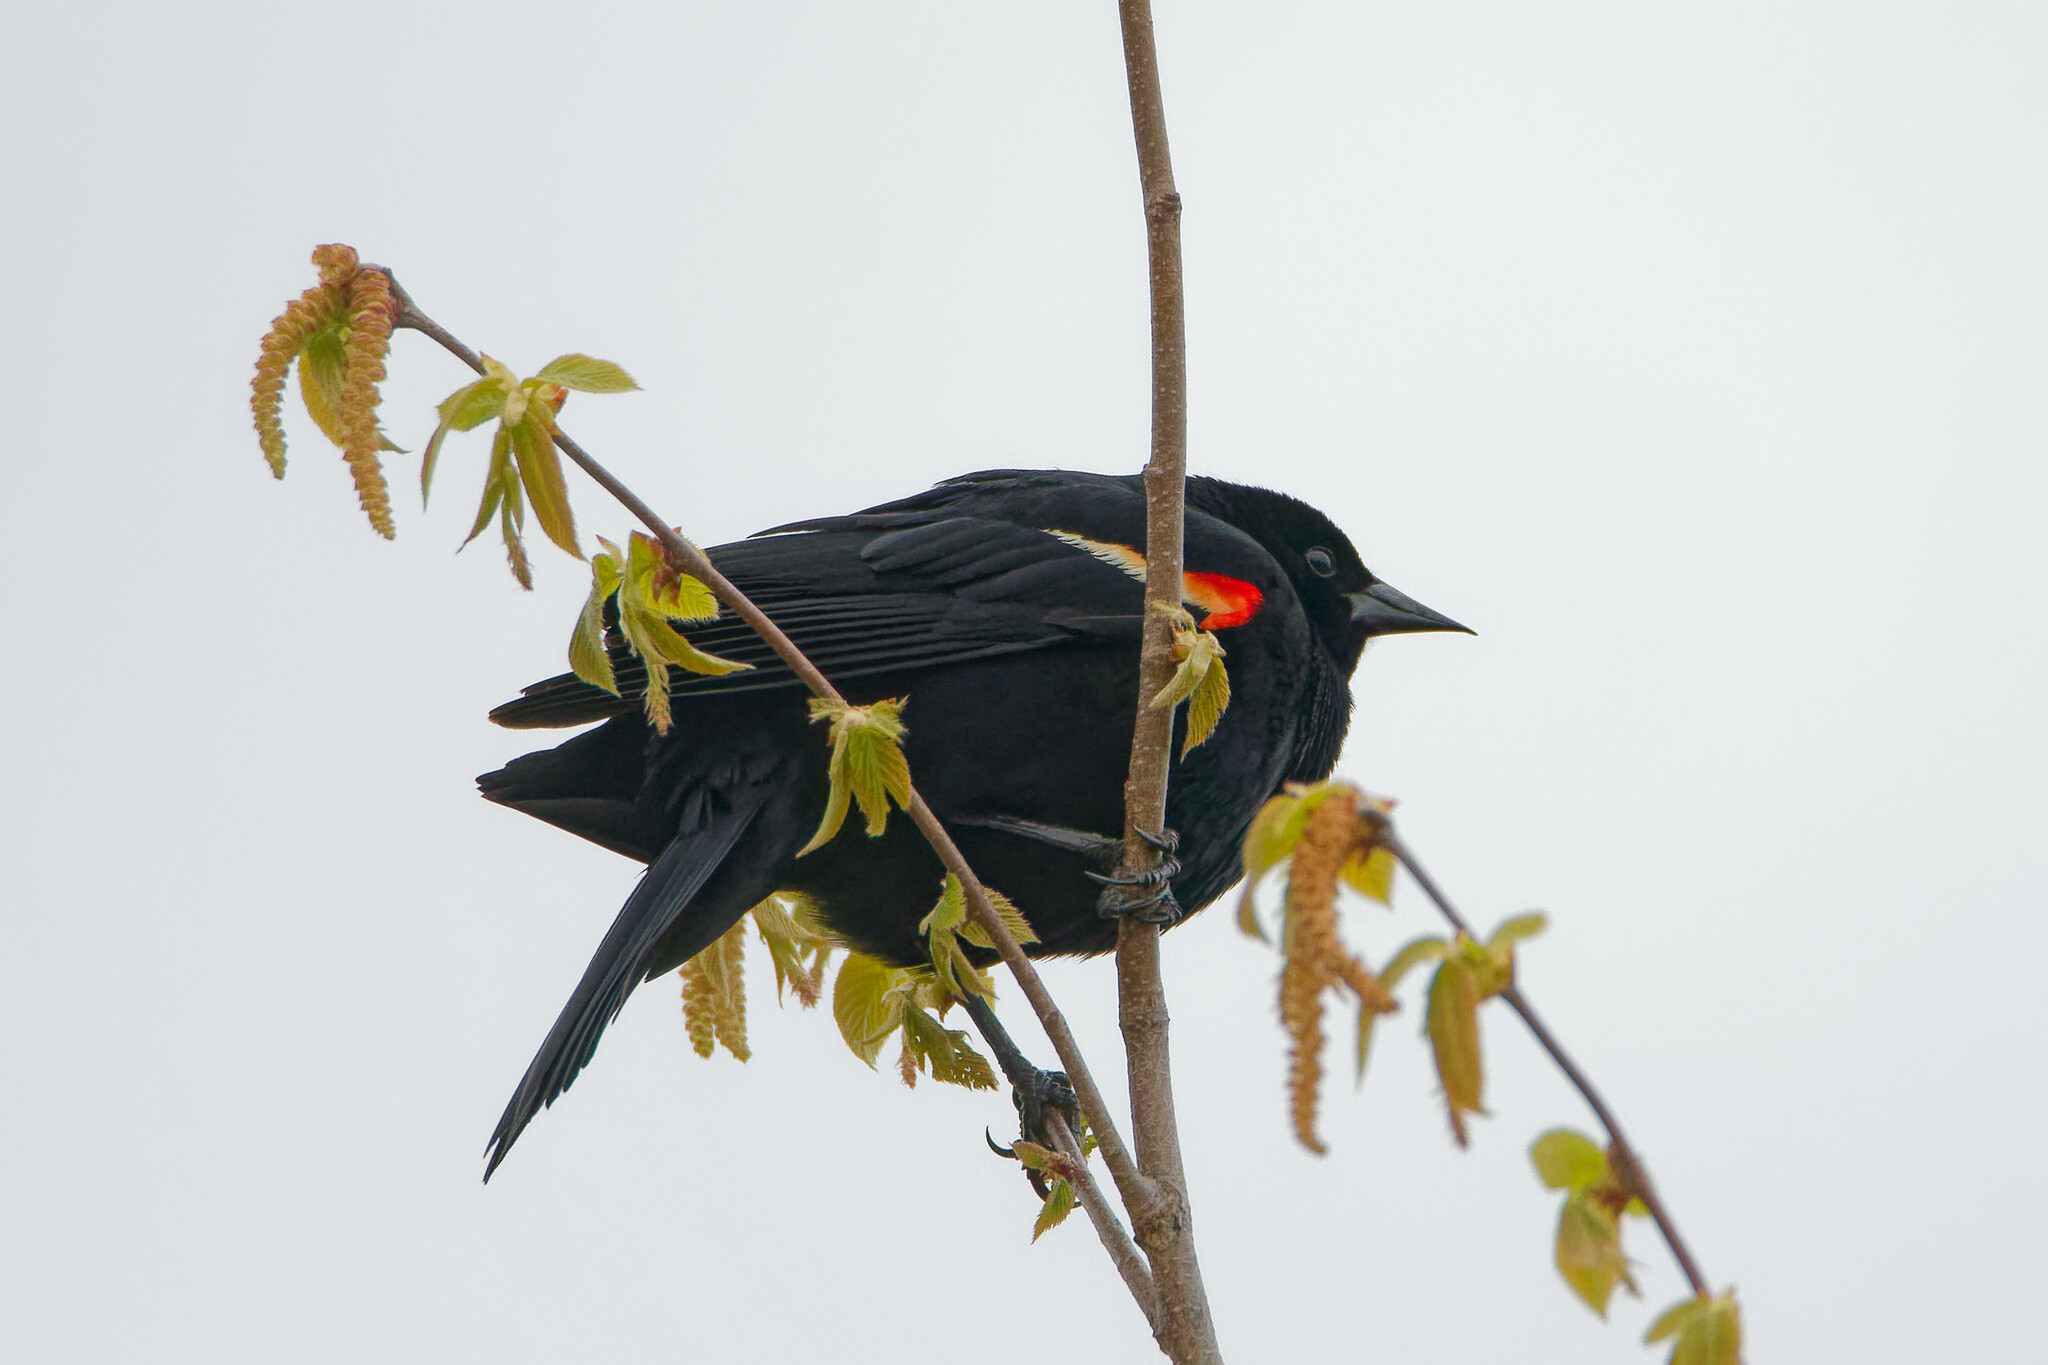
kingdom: Animalia
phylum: Chordata
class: Aves
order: Passeriformes
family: Icteridae
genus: Agelaius
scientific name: Agelaius phoeniceus
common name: Red-winged blackbird
